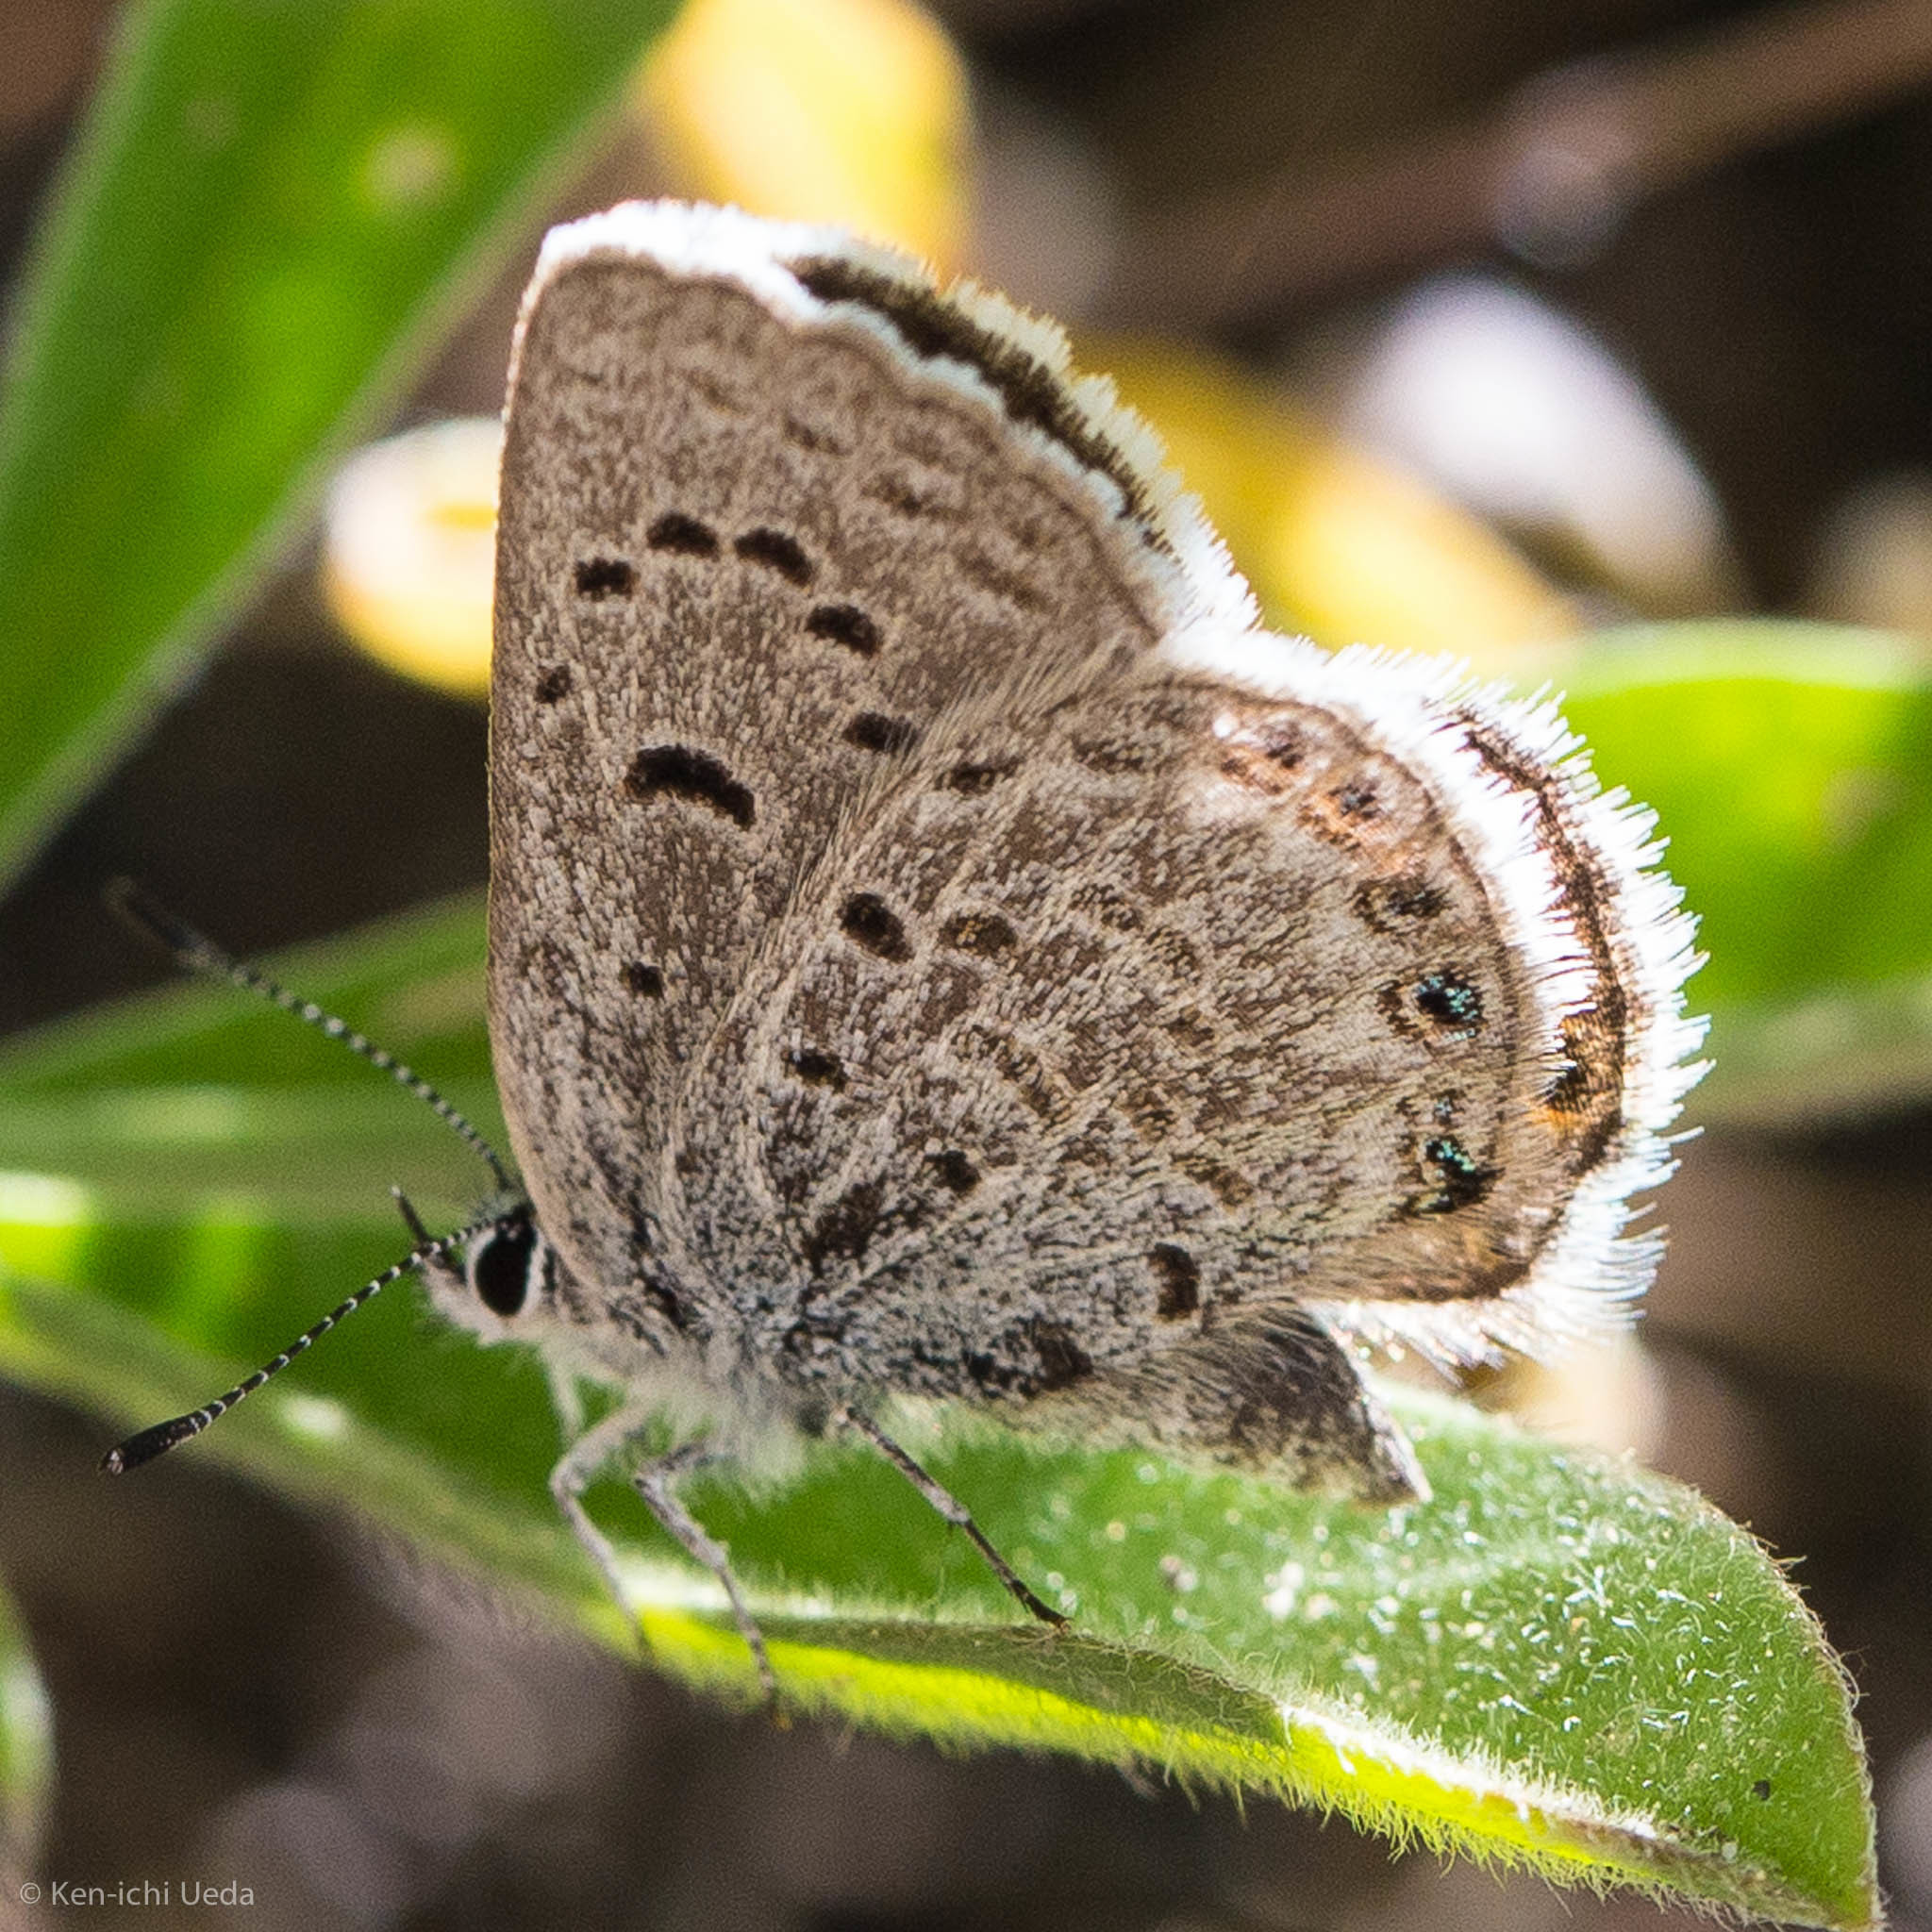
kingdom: Animalia
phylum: Arthropoda
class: Insecta
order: Lepidoptera
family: Lycaenidae
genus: Icaricia
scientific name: Icaricia shasta
